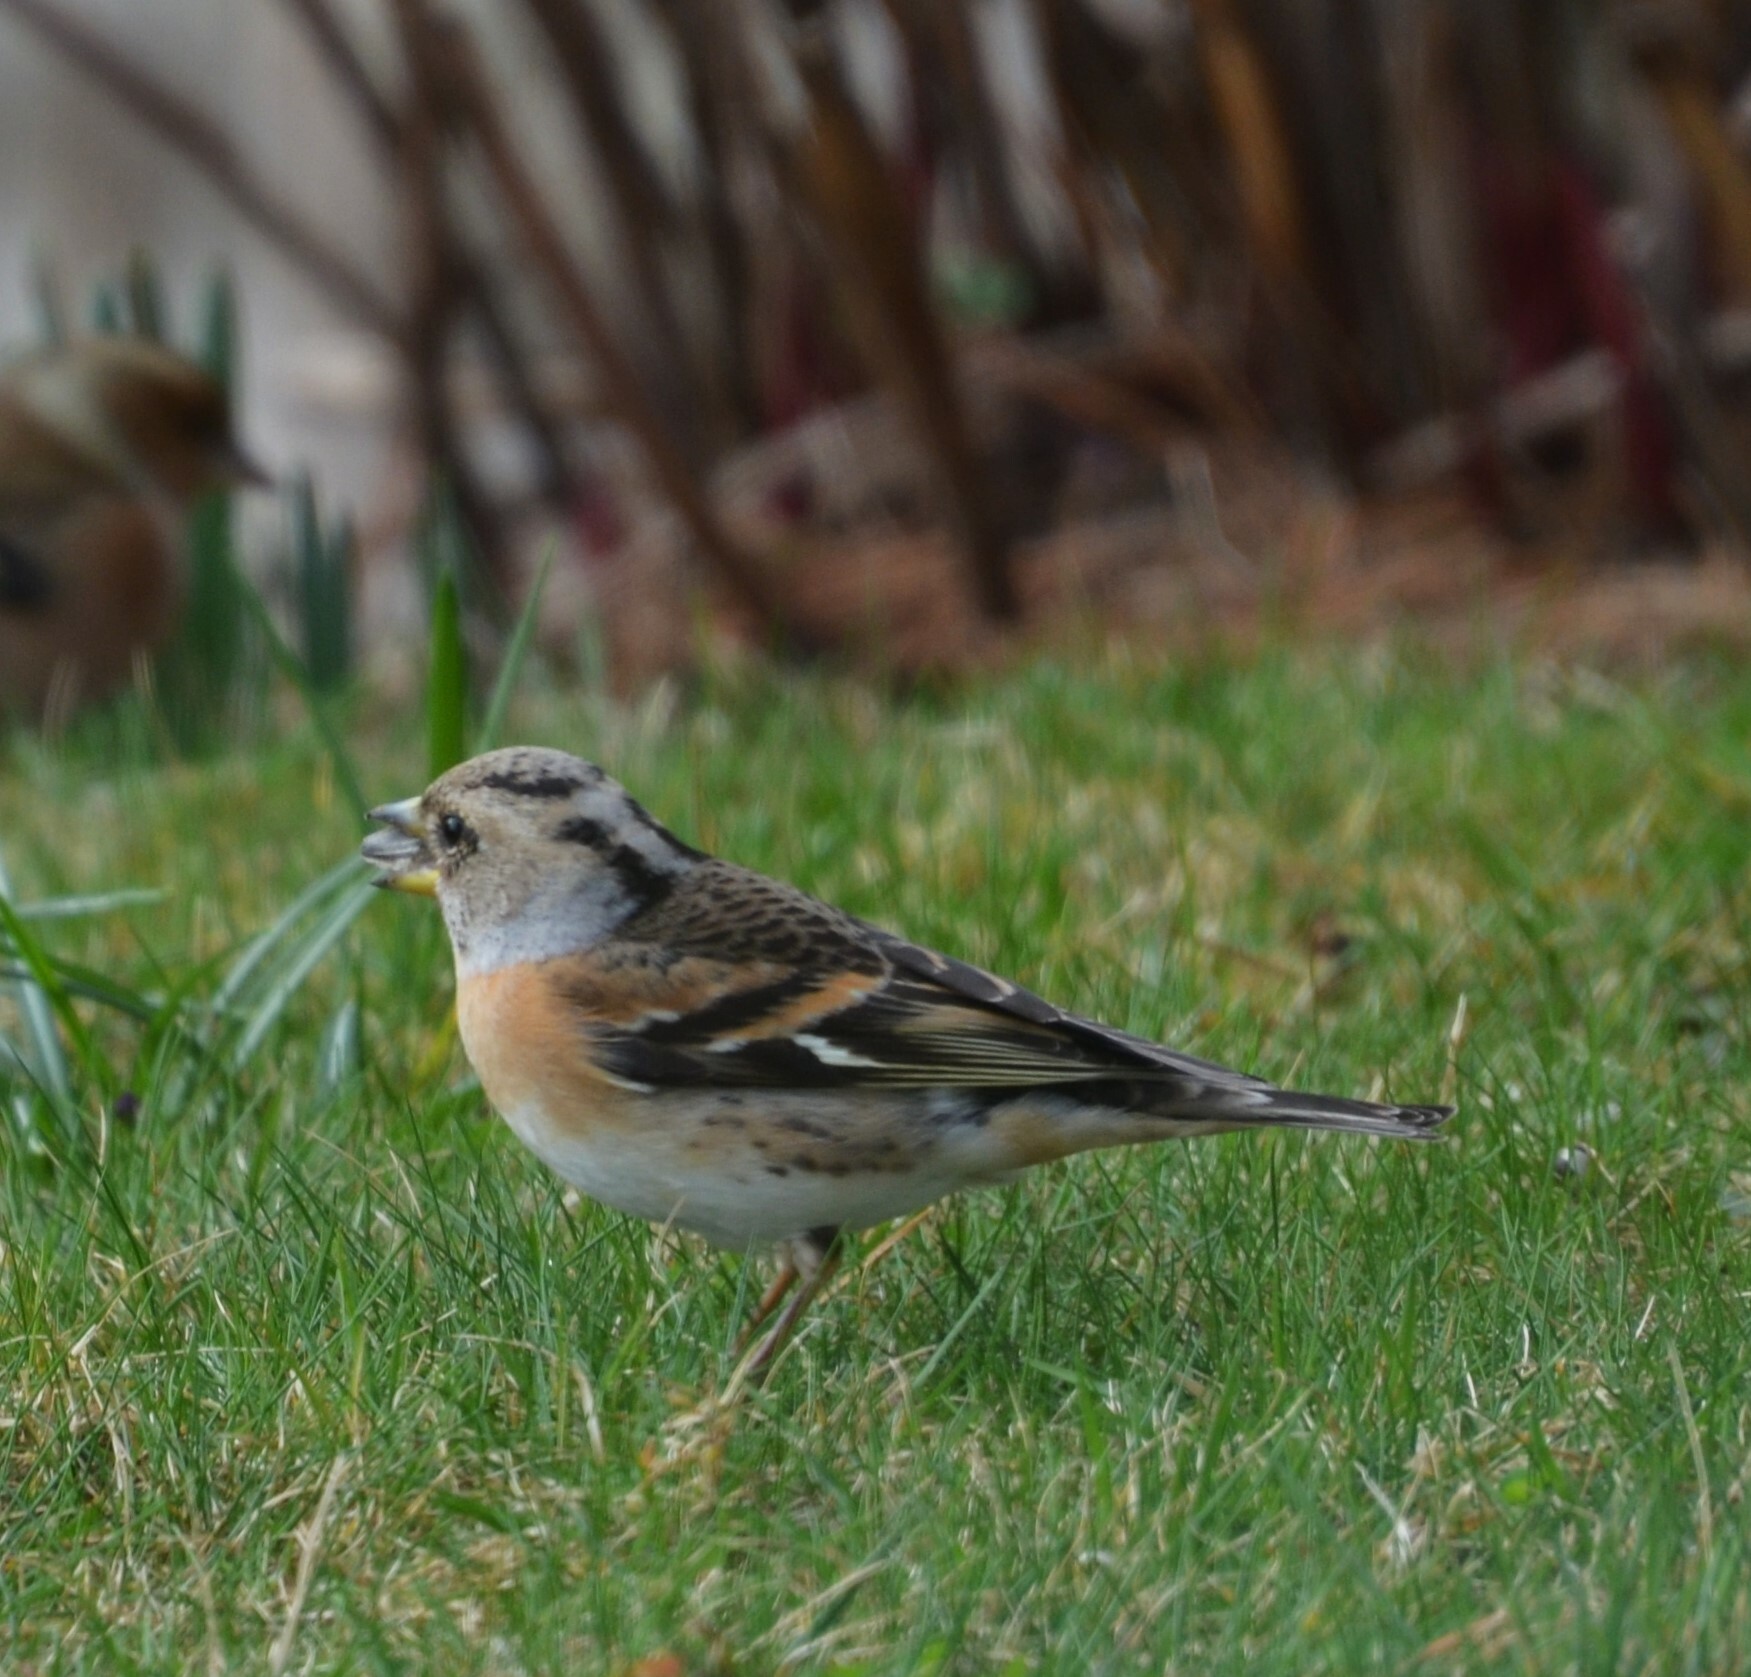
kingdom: Animalia
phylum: Chordata
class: Aves
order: Passeriformes
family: Fringillidae
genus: Fringilla
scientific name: Fringilla montifringilla
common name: Brambling
